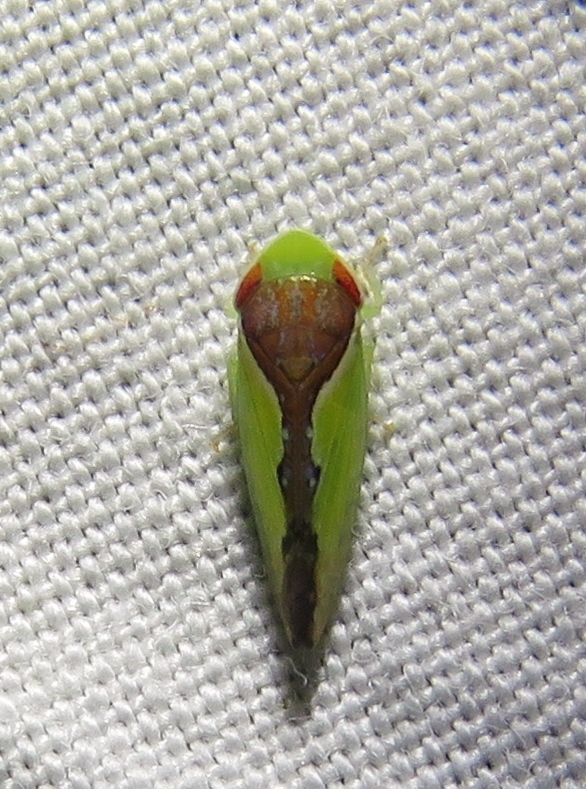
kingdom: Animalia
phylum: Arthropoda
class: Insecta
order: Hemiptera
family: Cicadellidae
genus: Omansobara ing
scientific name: Omansobara ing Omansobara palliolata
